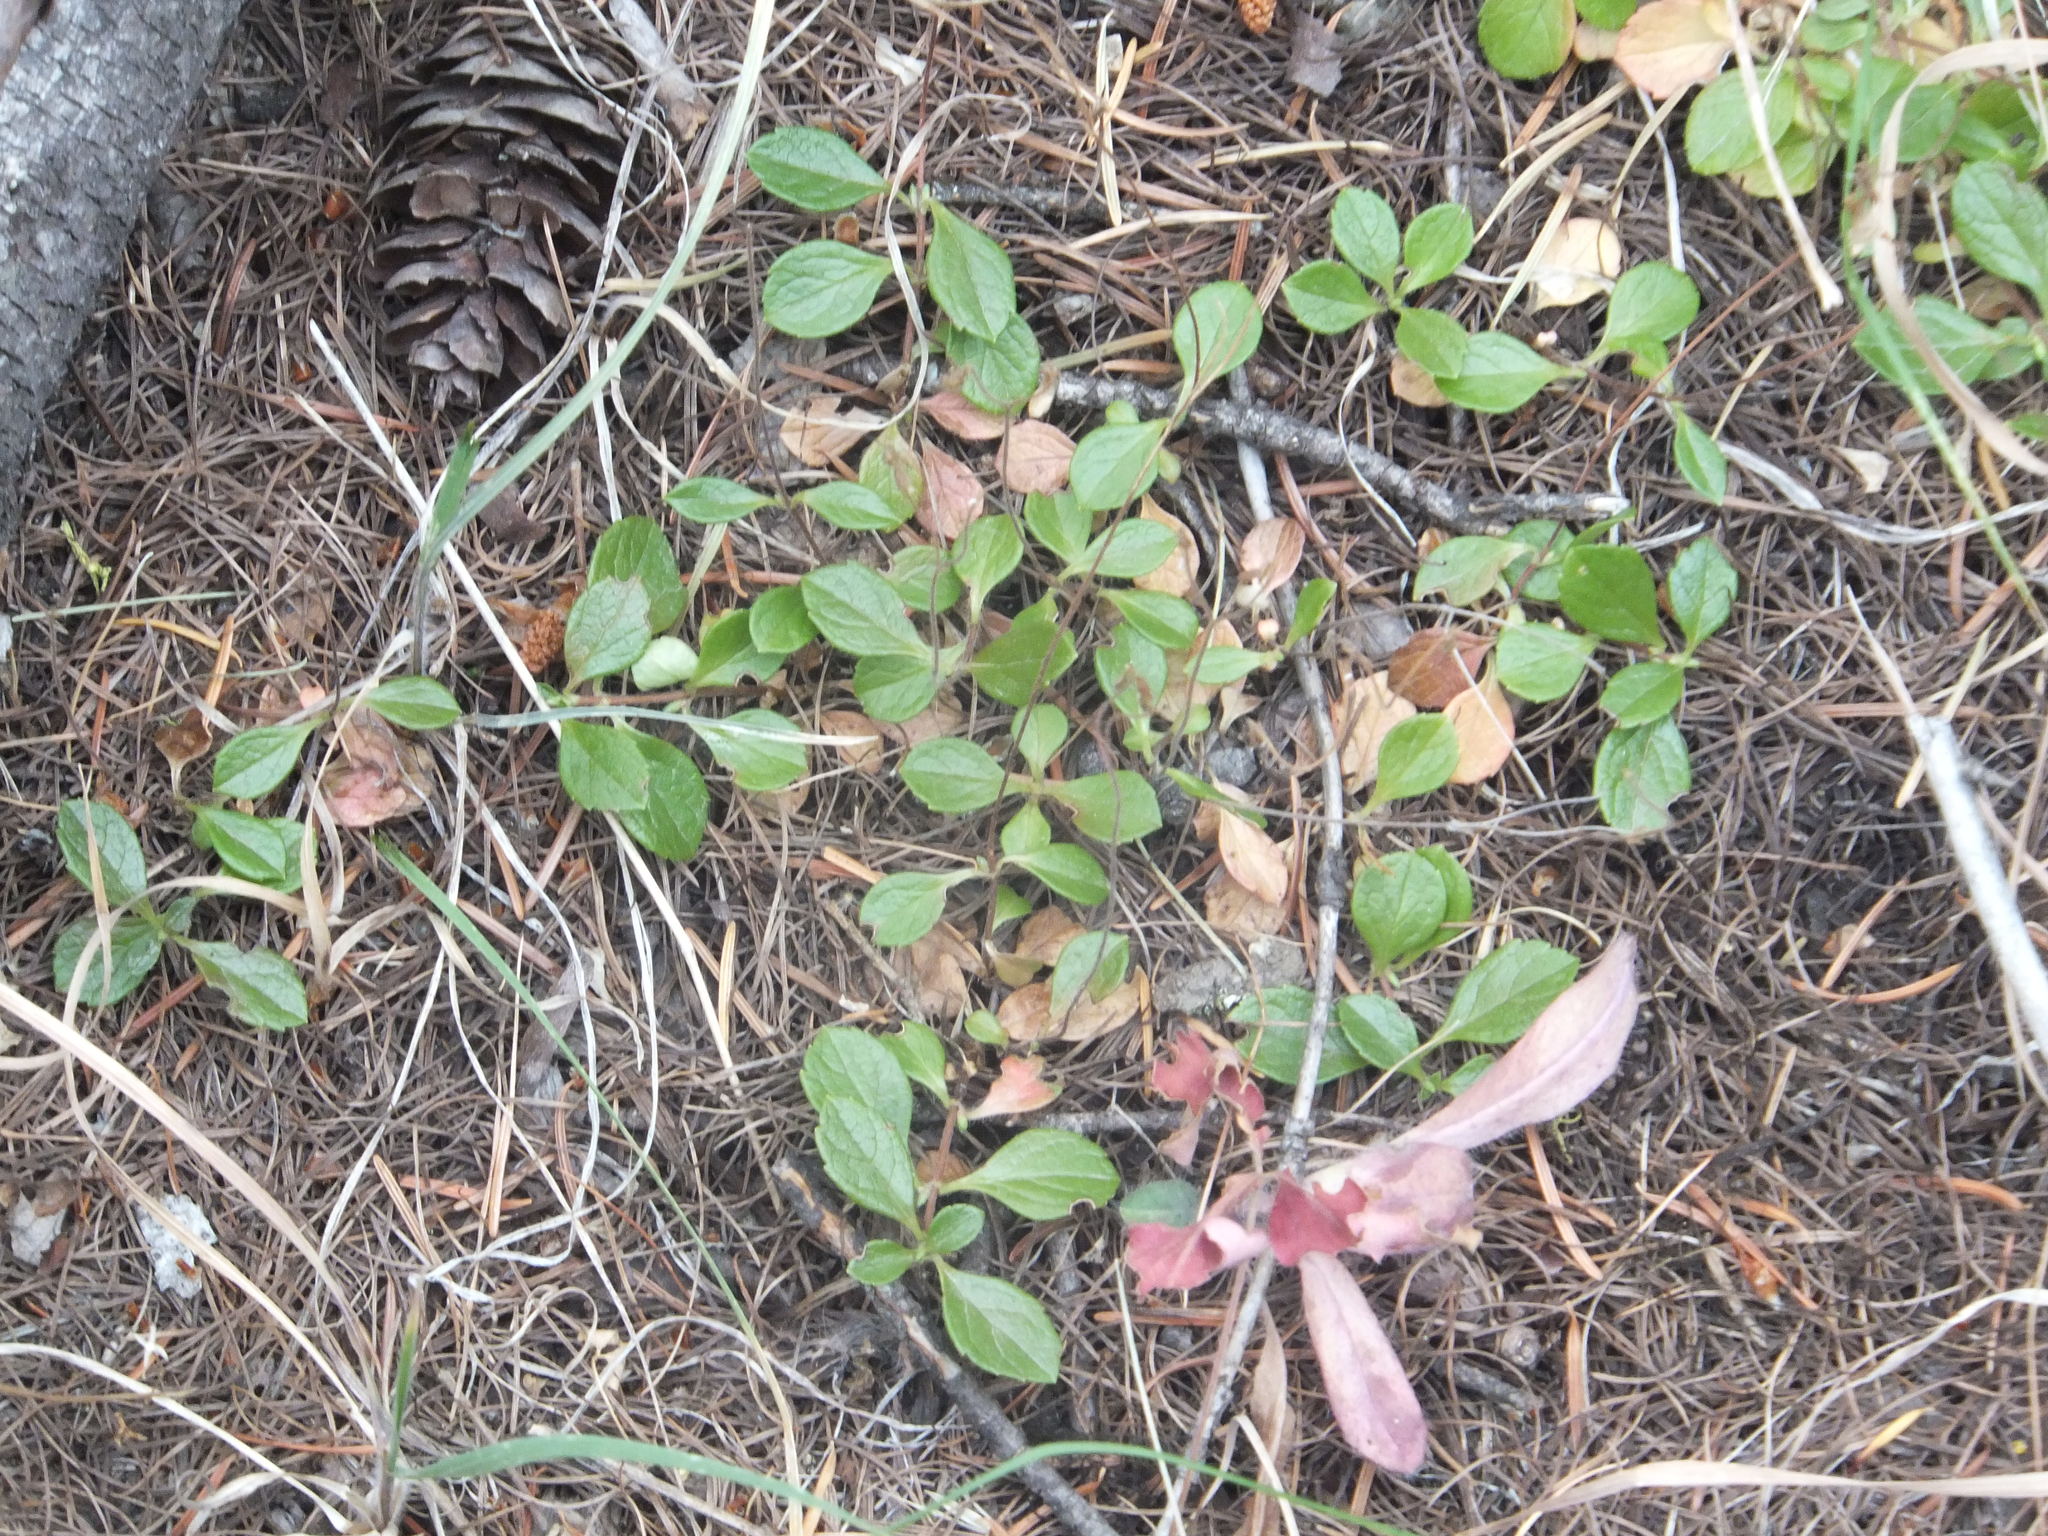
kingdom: Plantae
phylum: Tracheophyta
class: Magnoliopsida
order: Dipsacales
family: Caprifoliaceae
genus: Linnaea
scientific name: Linnaea borealis
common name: Twinflower
